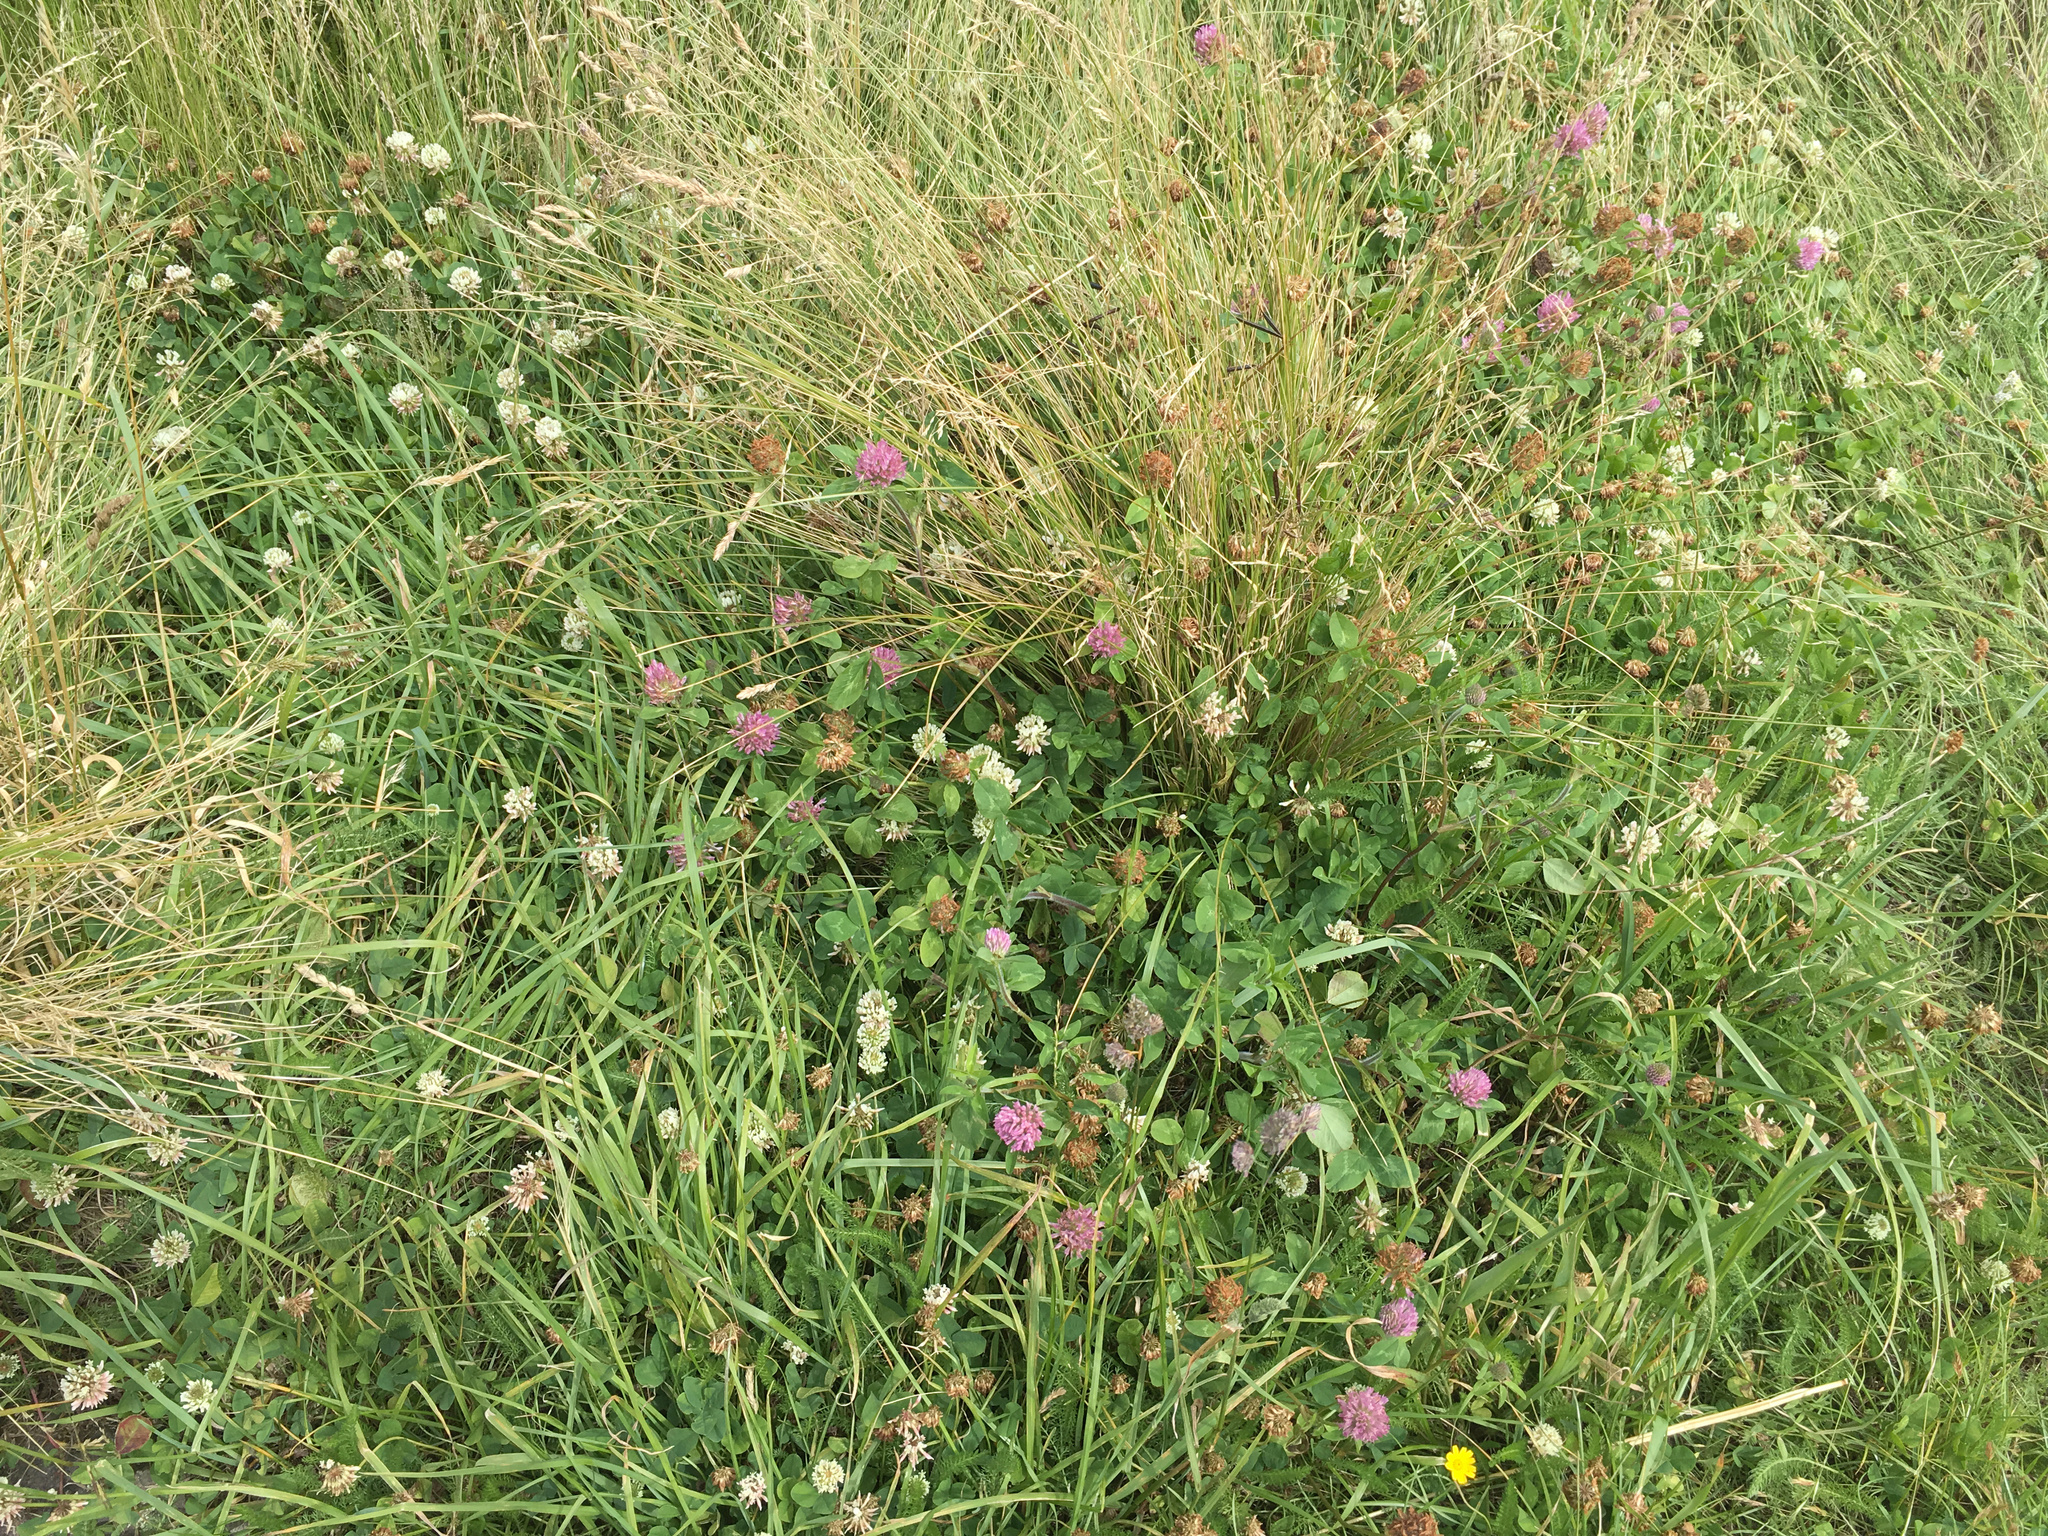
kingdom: Plantae
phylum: Tracheophyta
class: Magnoliopsida
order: Fabales
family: Fabaceae
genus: Trifolium
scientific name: Trifolium repens
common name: White clover
